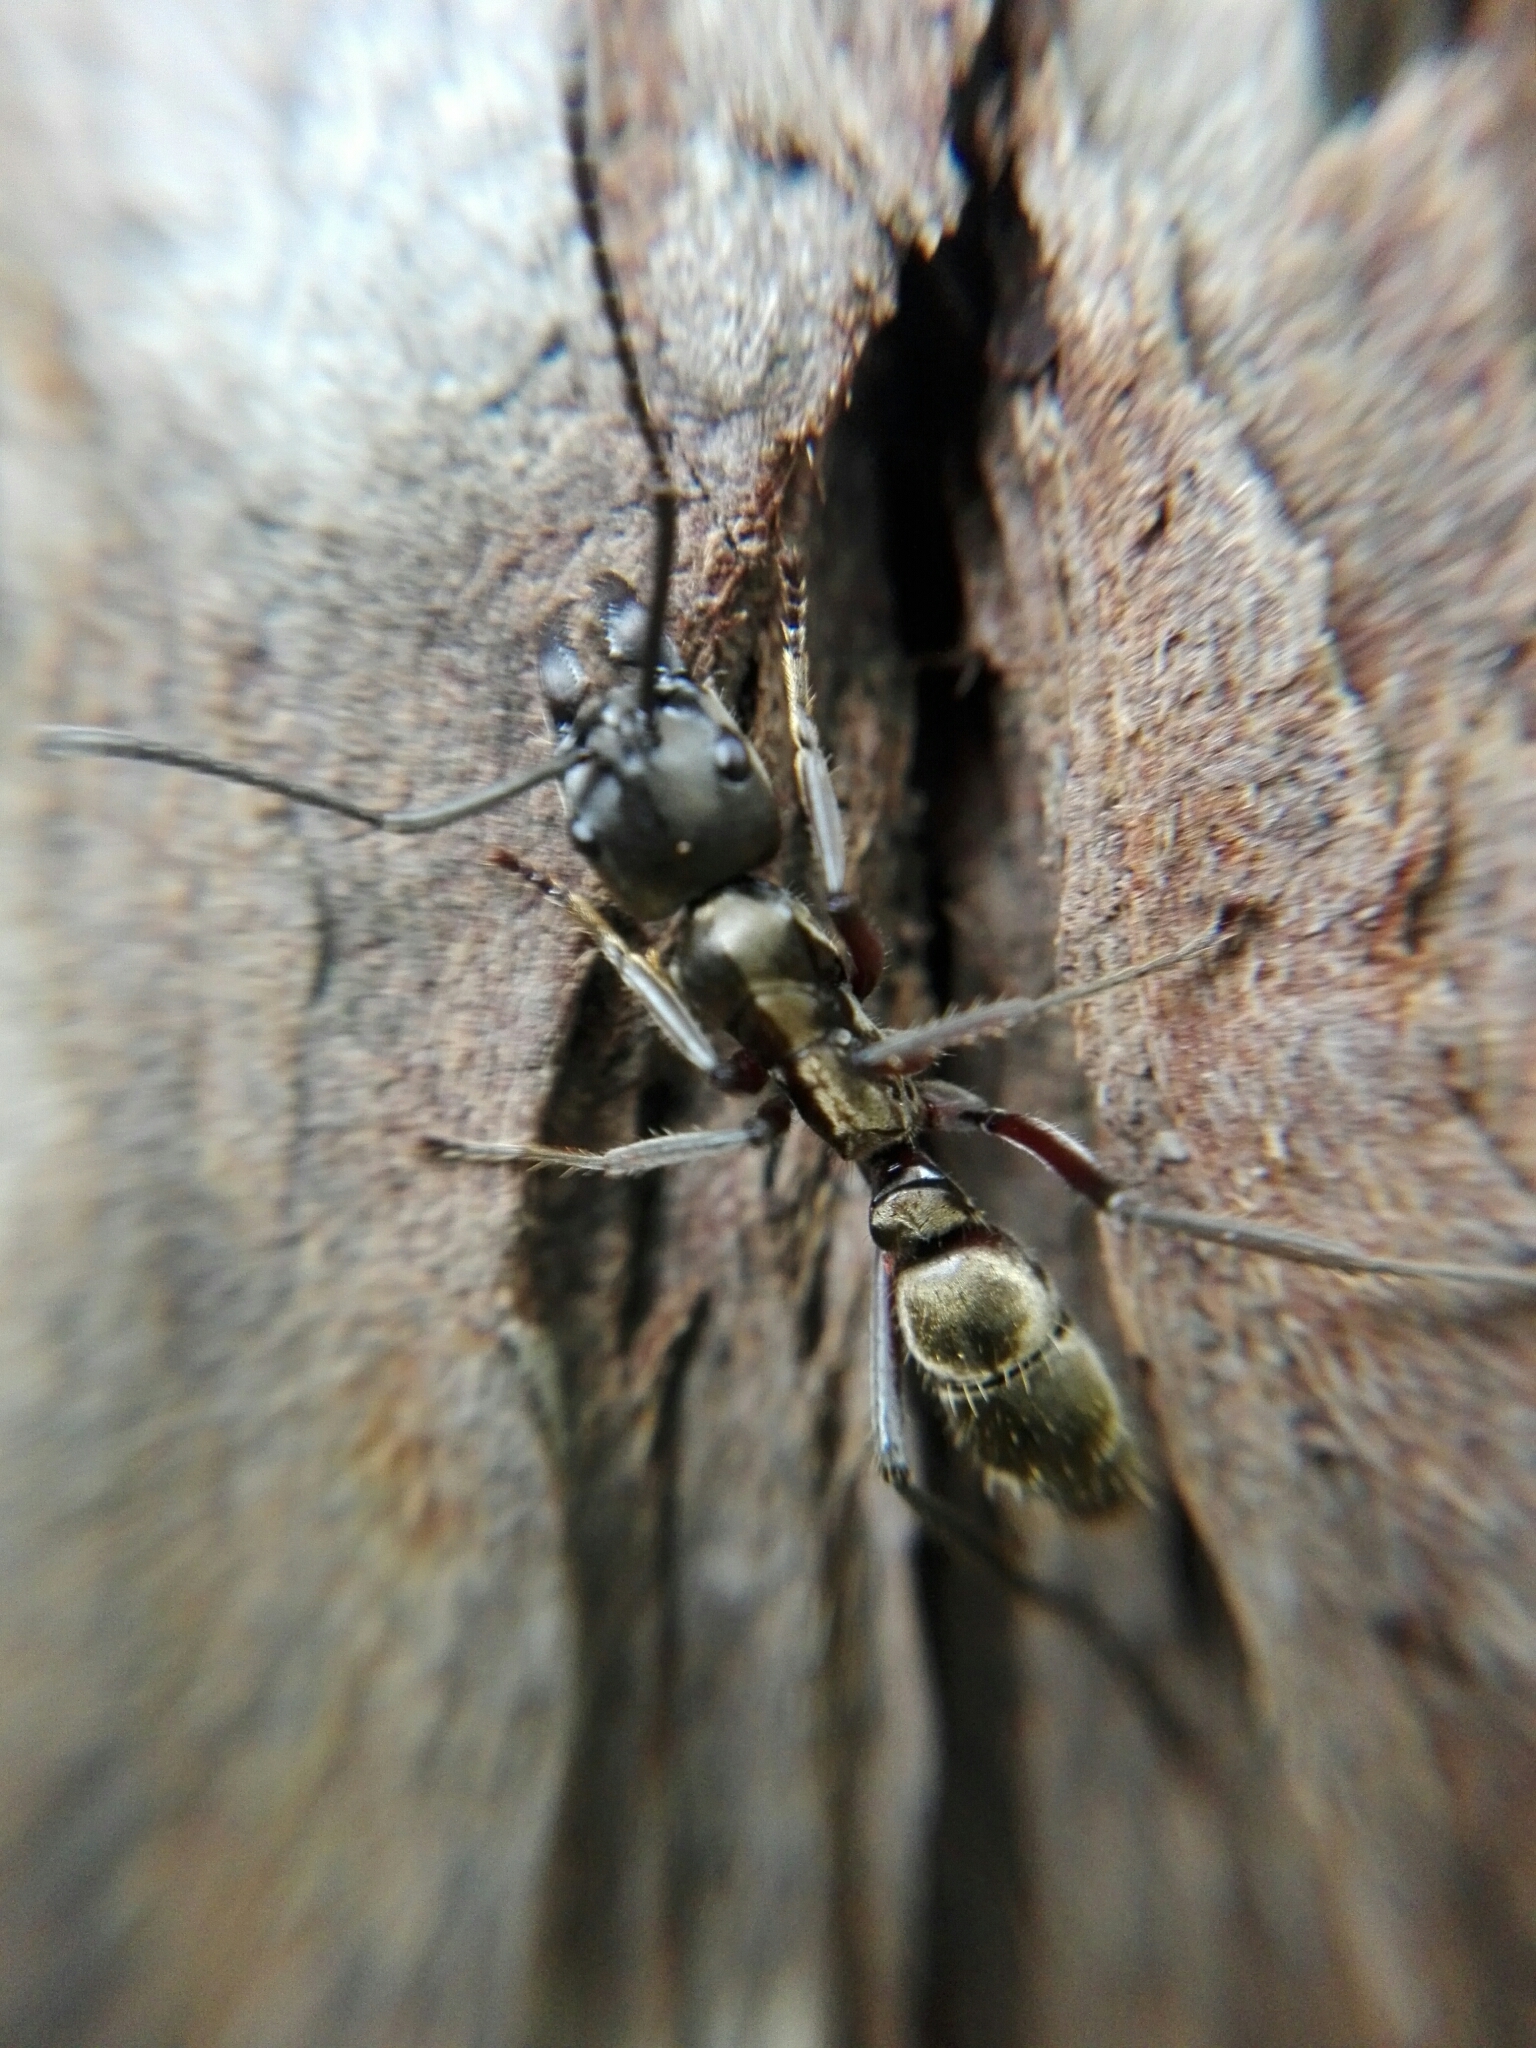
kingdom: Animalia
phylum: Arthropoda
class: Insecta
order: Hymenoptera
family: Formicidae
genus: Pachycondyla
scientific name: Pachycondyla villosa
